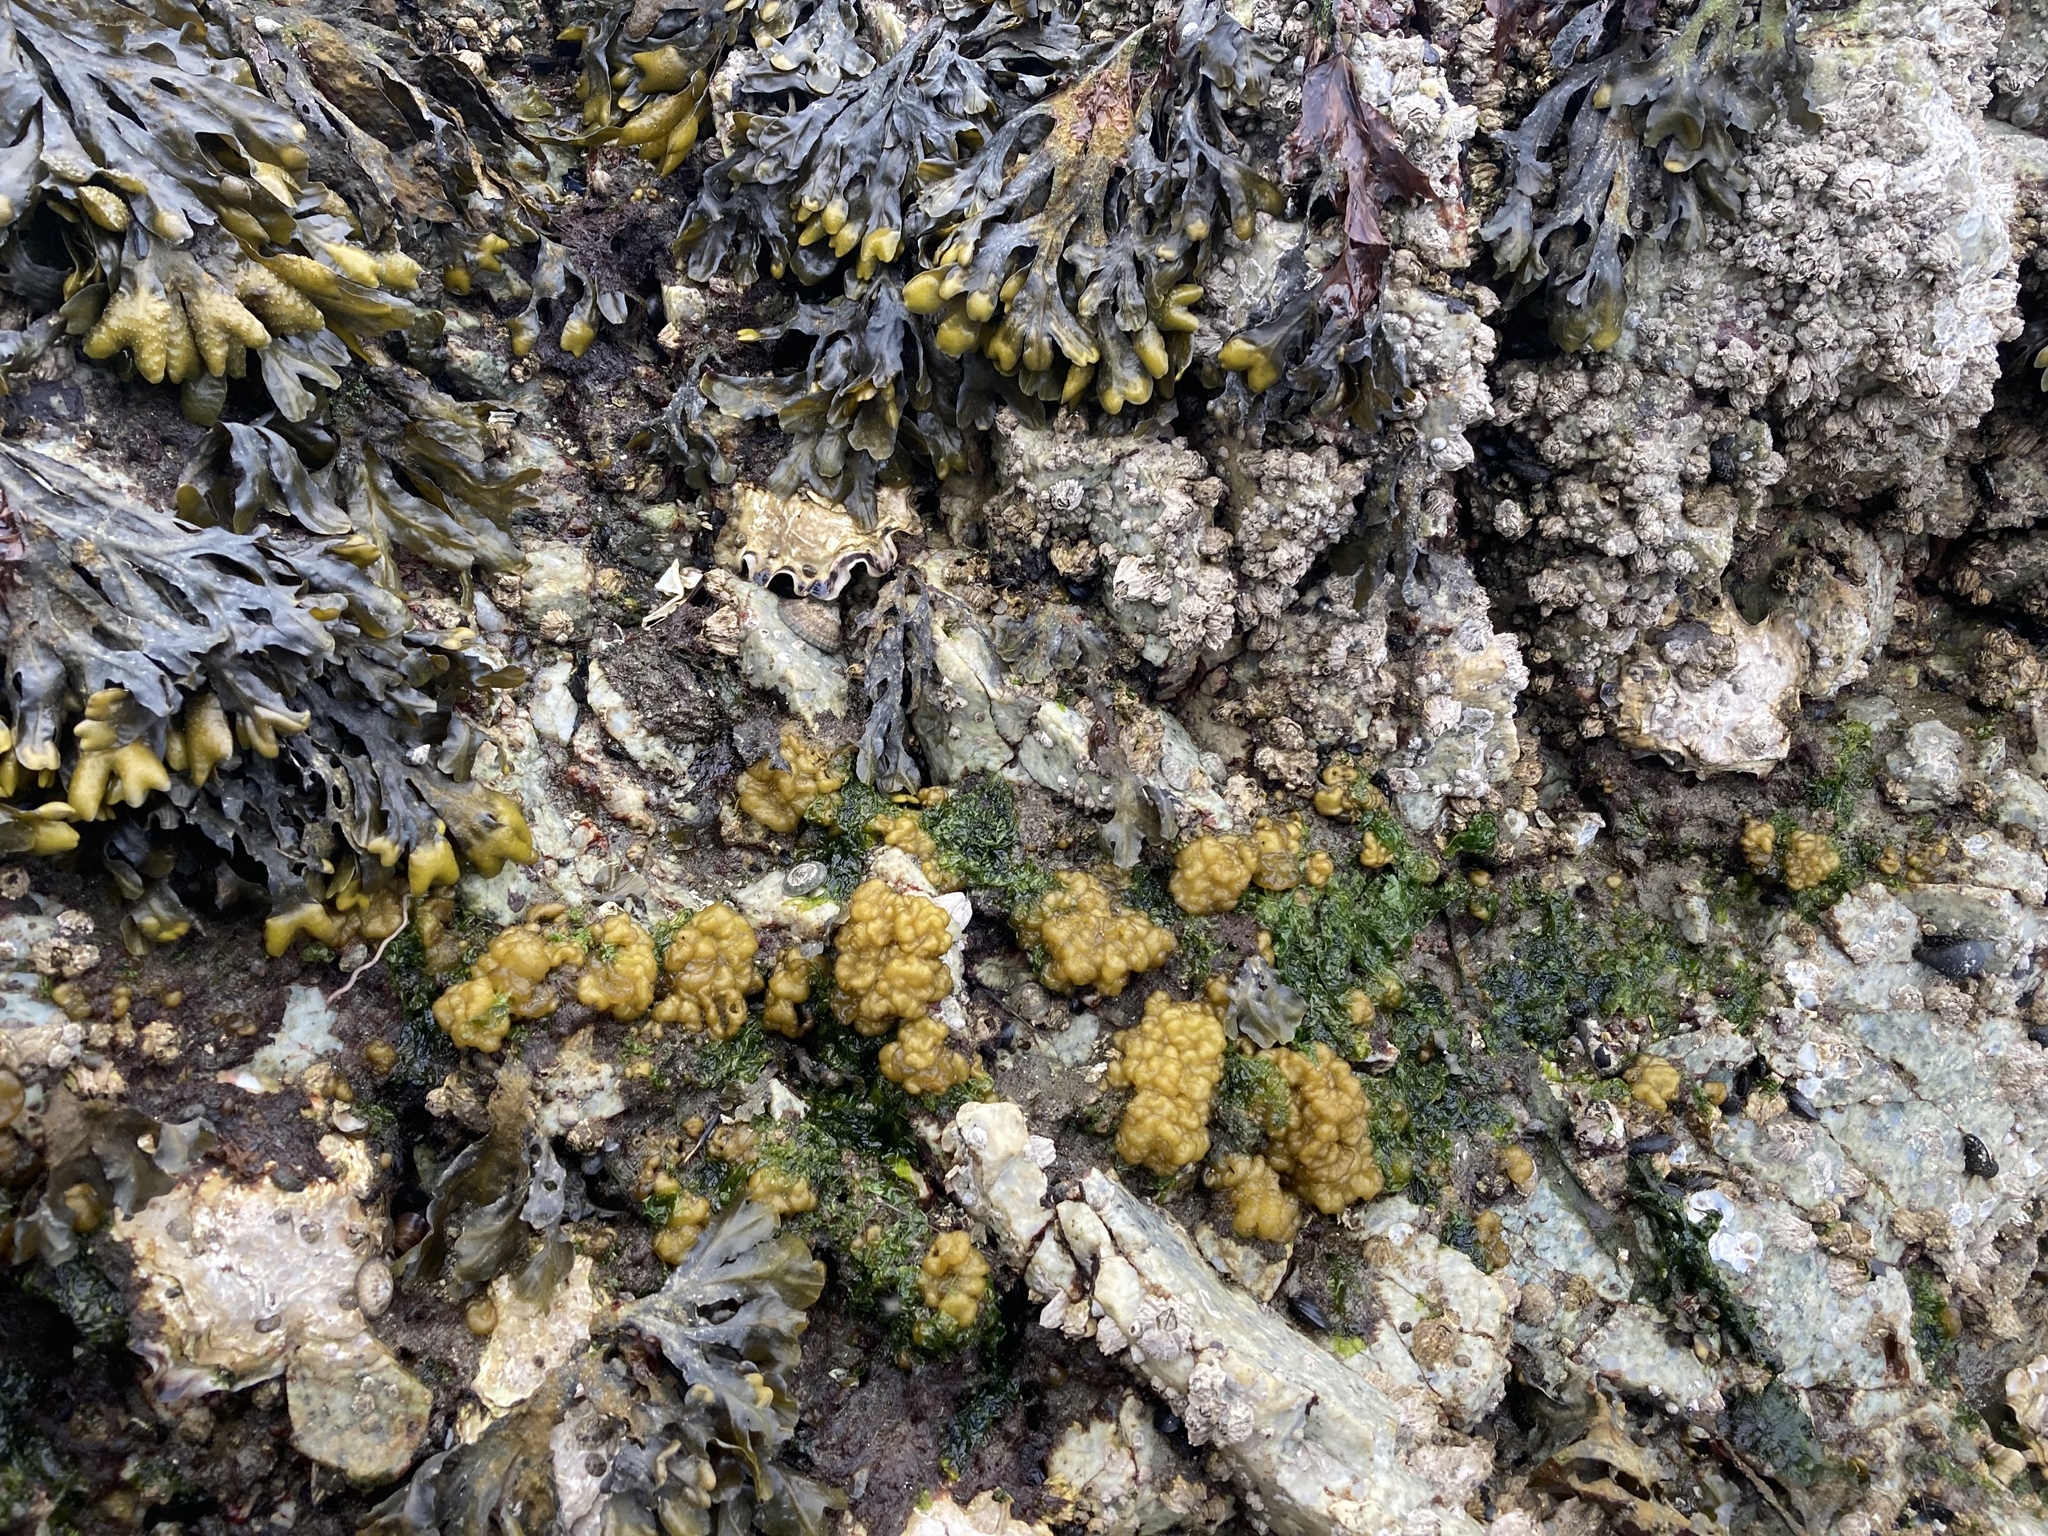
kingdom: Chromista
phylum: Ochrophyta
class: Phaeophyceae
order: Ectocarpales
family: Chordariaceae
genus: Leathesia
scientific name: Leathesia marina
